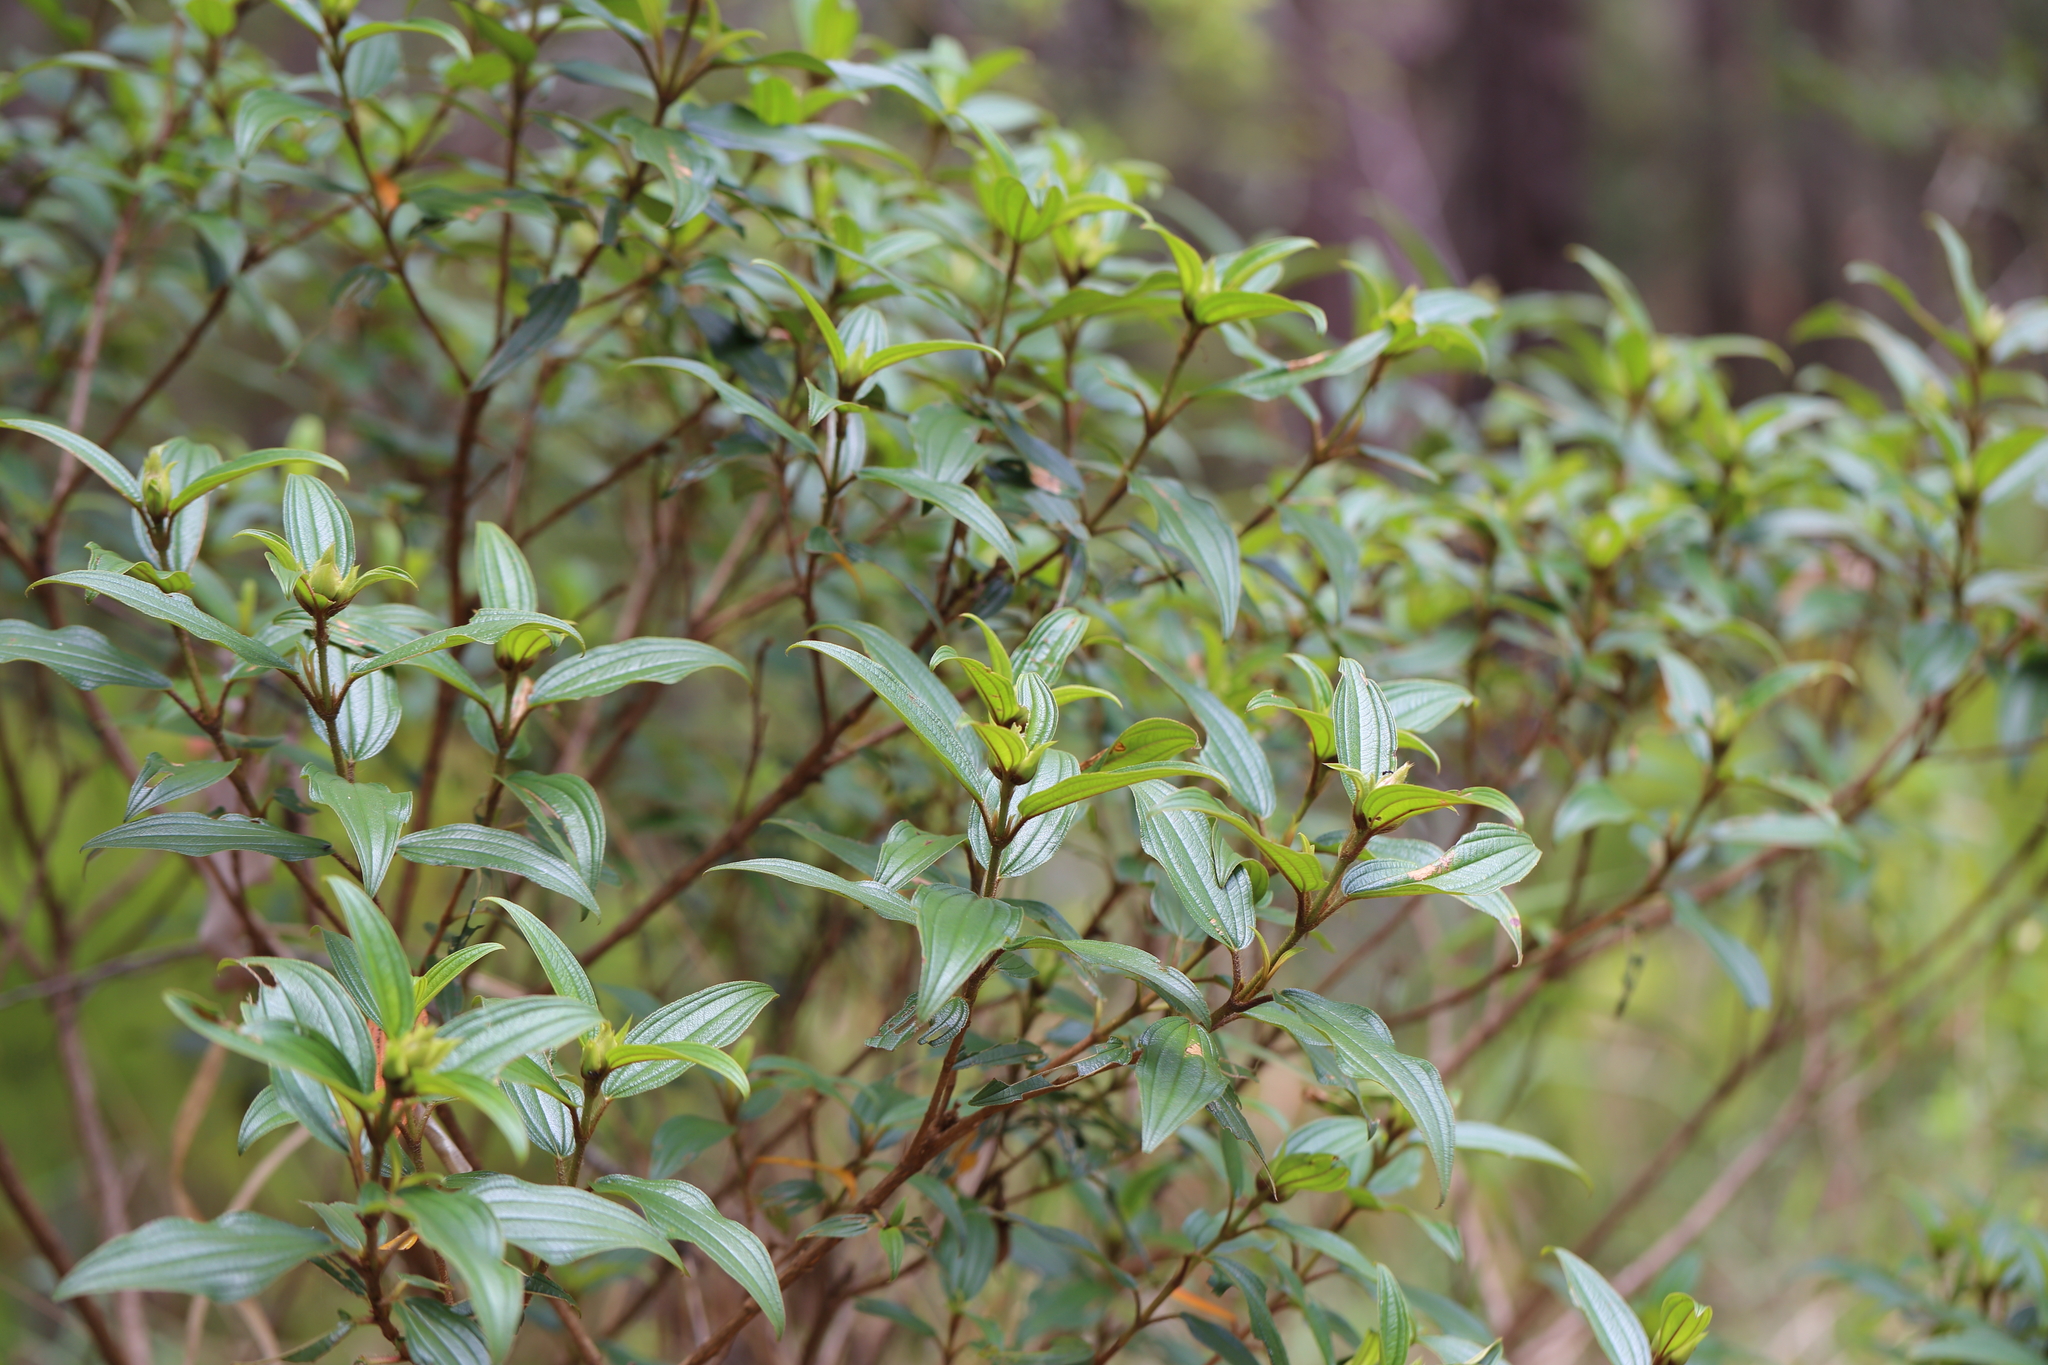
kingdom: Plantae
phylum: Tracheophyta
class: Magnoliopsida
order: Ericales
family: Primulaceae
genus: Ardisia
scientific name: Ardisia crenata
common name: Hen's eyes
